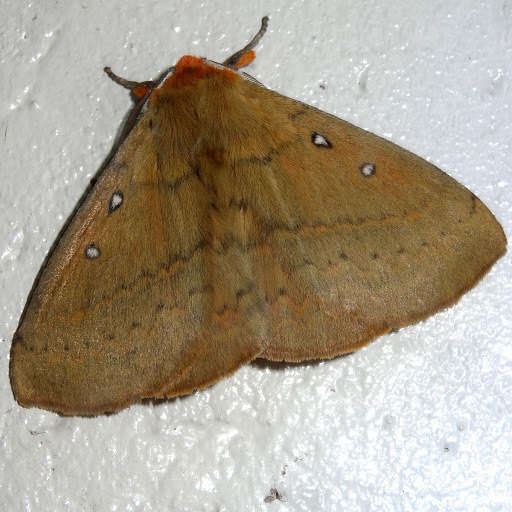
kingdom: Animalia
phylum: Arthropoda
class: Insecta
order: Lepidoptera
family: Anthelidae
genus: Anthela
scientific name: Anthela nicothoe
